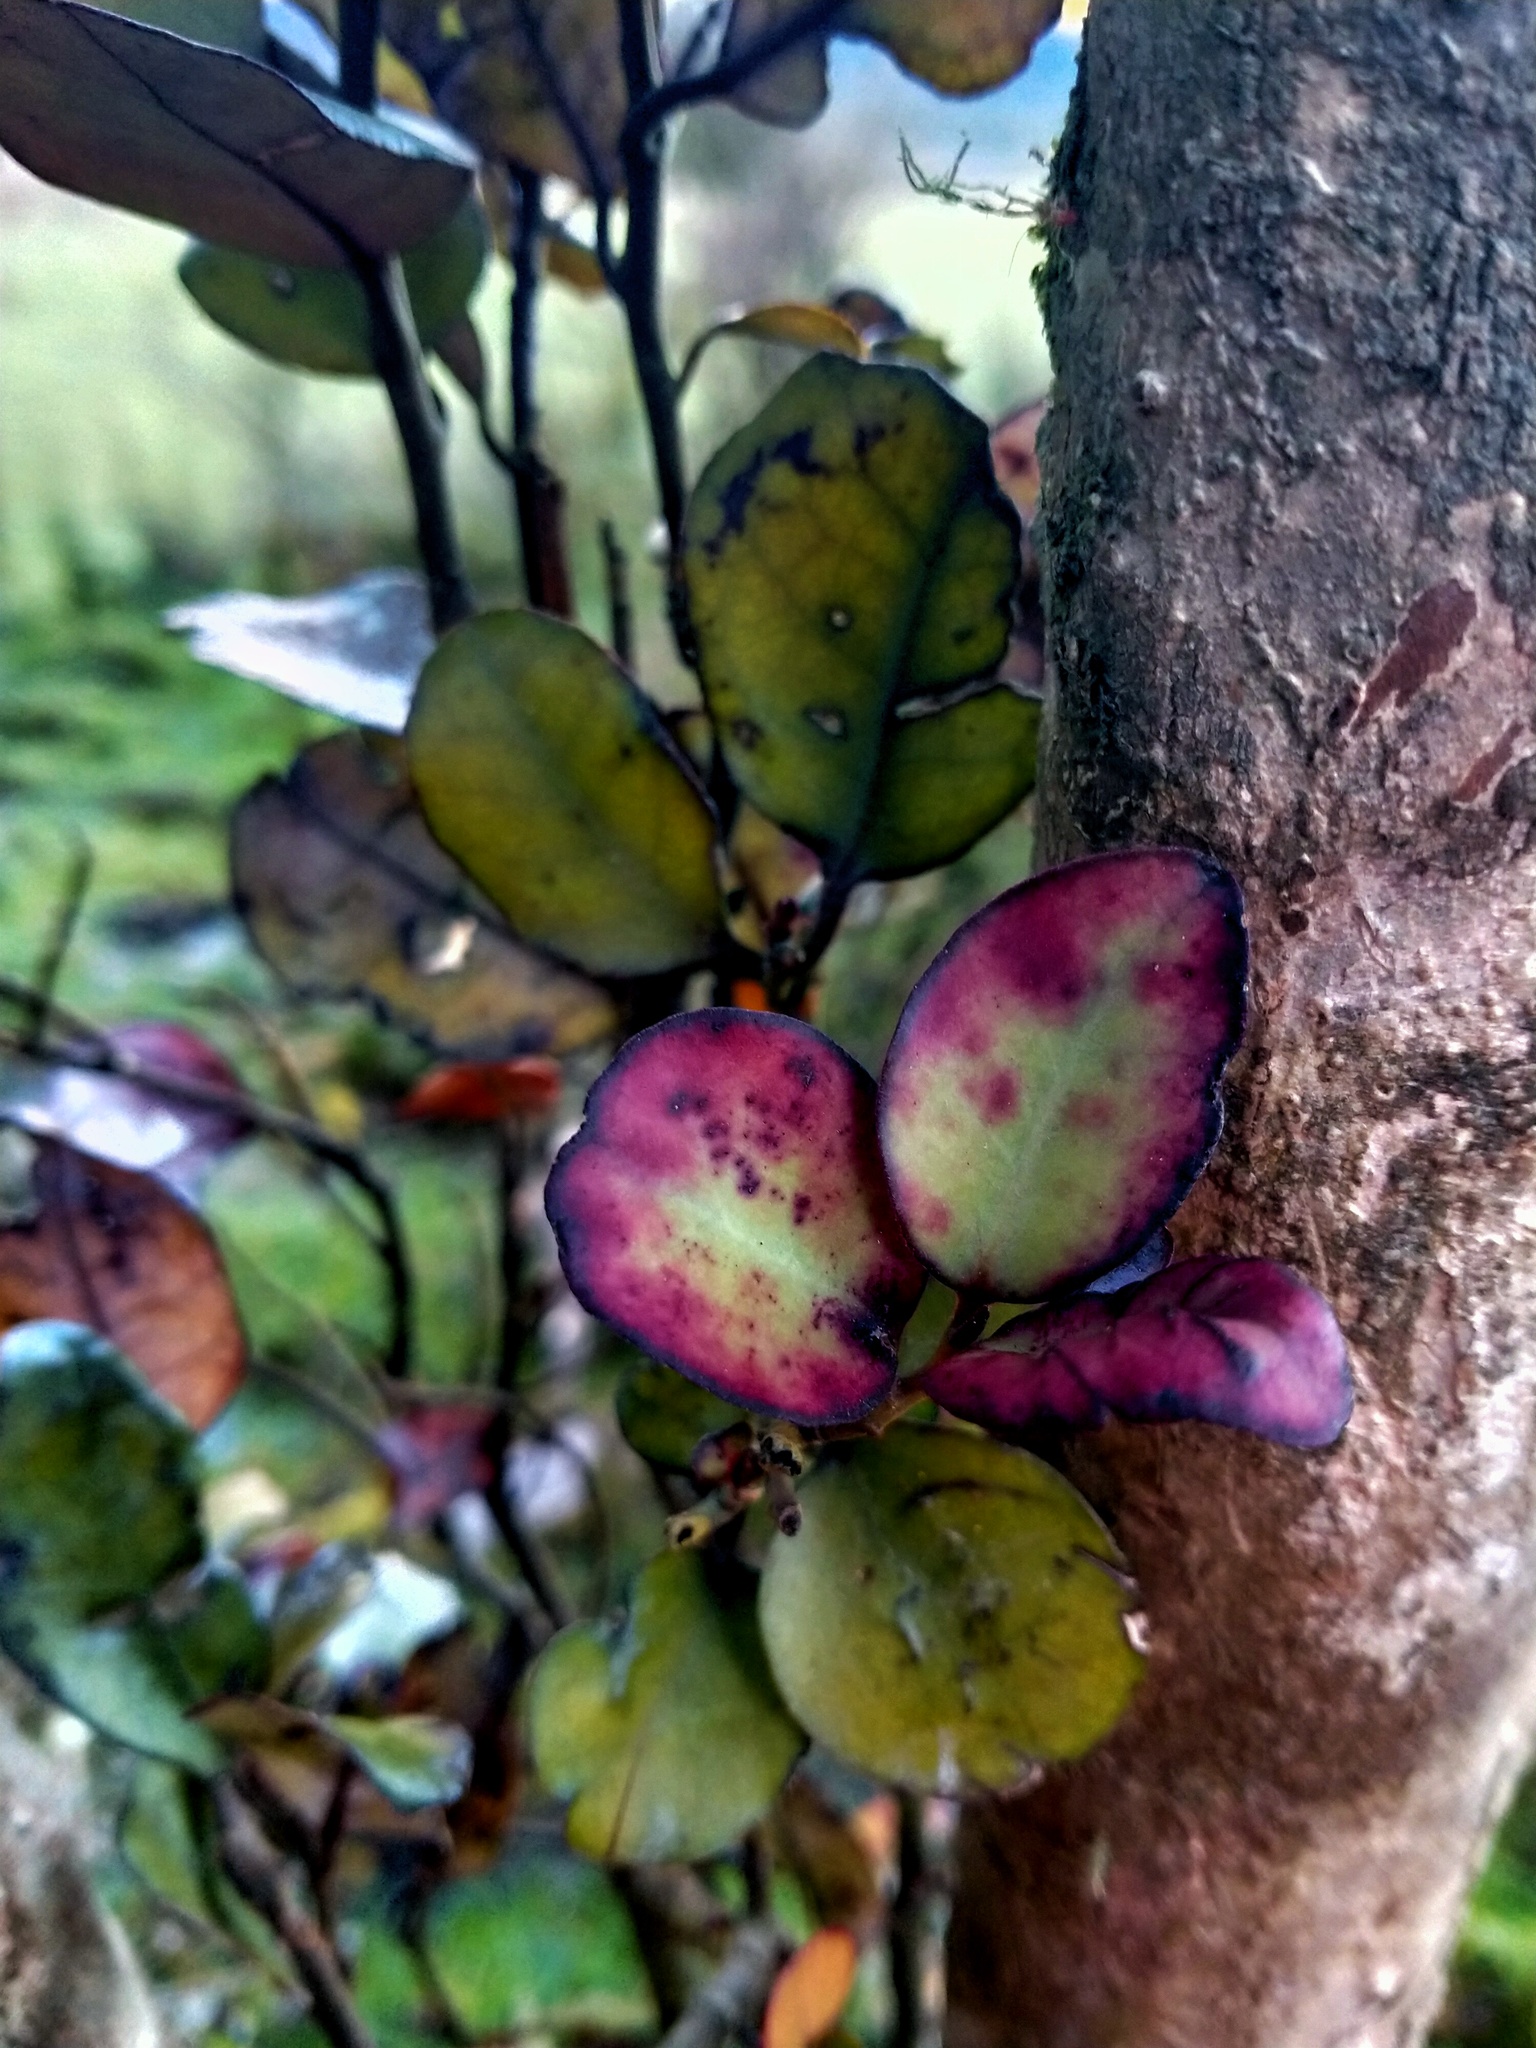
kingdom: Plantae
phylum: Tracheophyta
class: Magnoliopsida
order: Canellales
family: Winteraceae
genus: Pseudowintera
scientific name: Pseudowintera colorata
